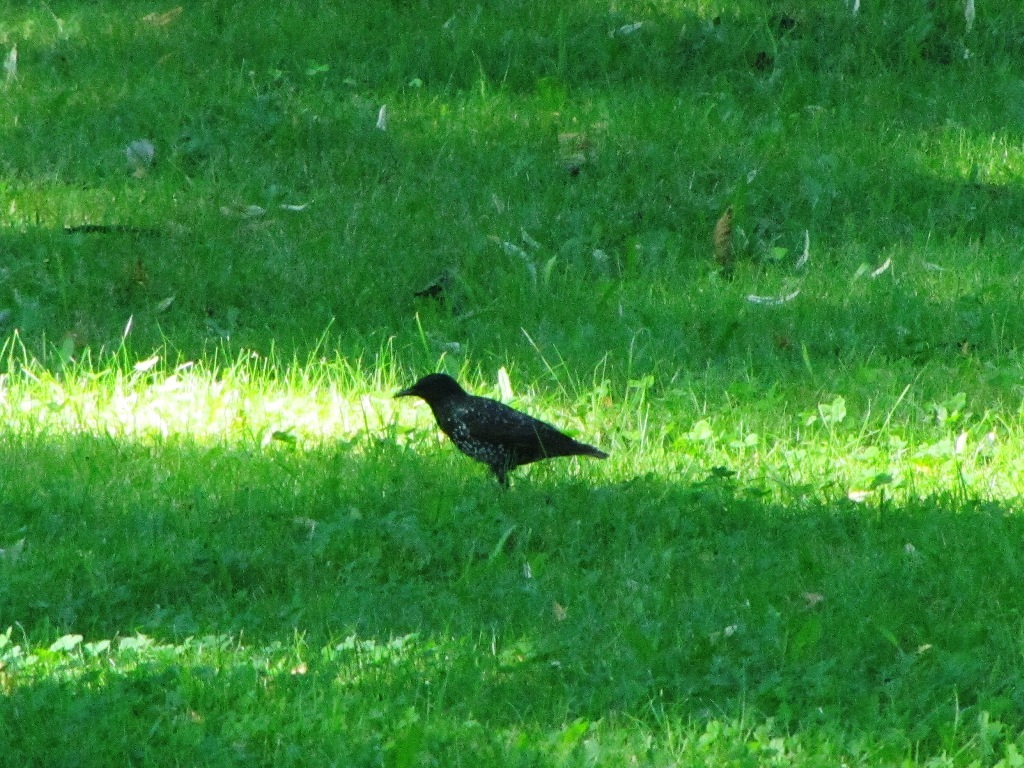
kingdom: Animalia
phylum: Chordata
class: Aves
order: Passeriformes
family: Sturnidae
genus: Sturnus
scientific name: Sturnus vulgaris
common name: Common starling
